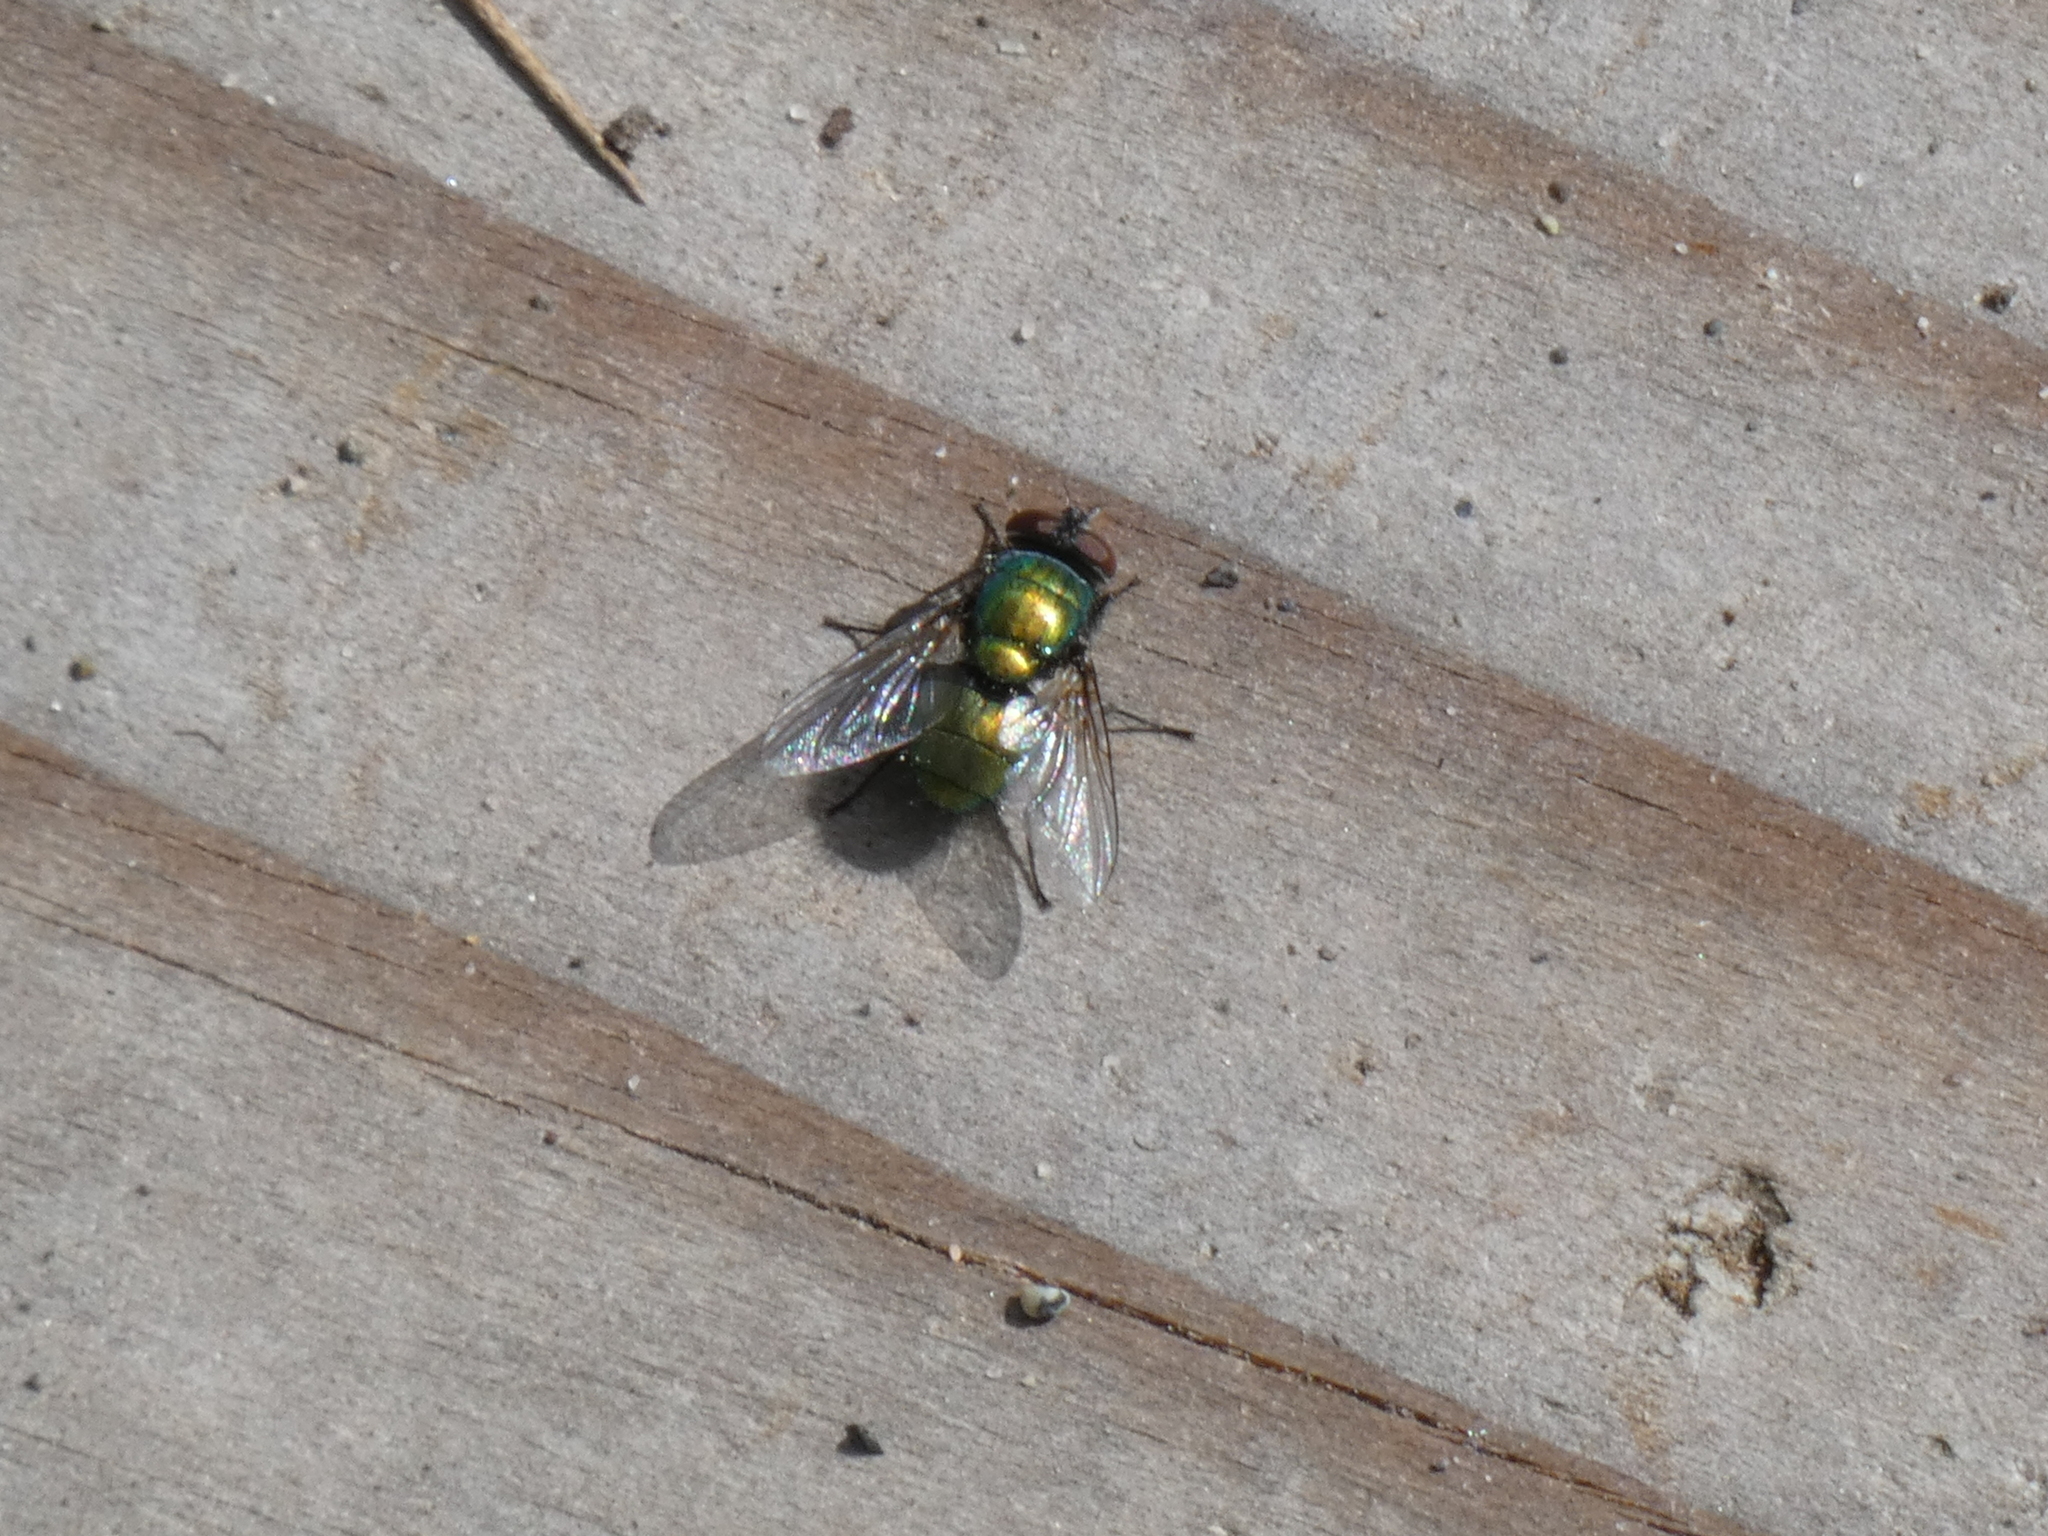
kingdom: Animalia
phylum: Arthropoda
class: Insecta
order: Diptera
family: Calliphoridae
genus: Lucilia
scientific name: Lucilia sericata
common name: Blow fly
